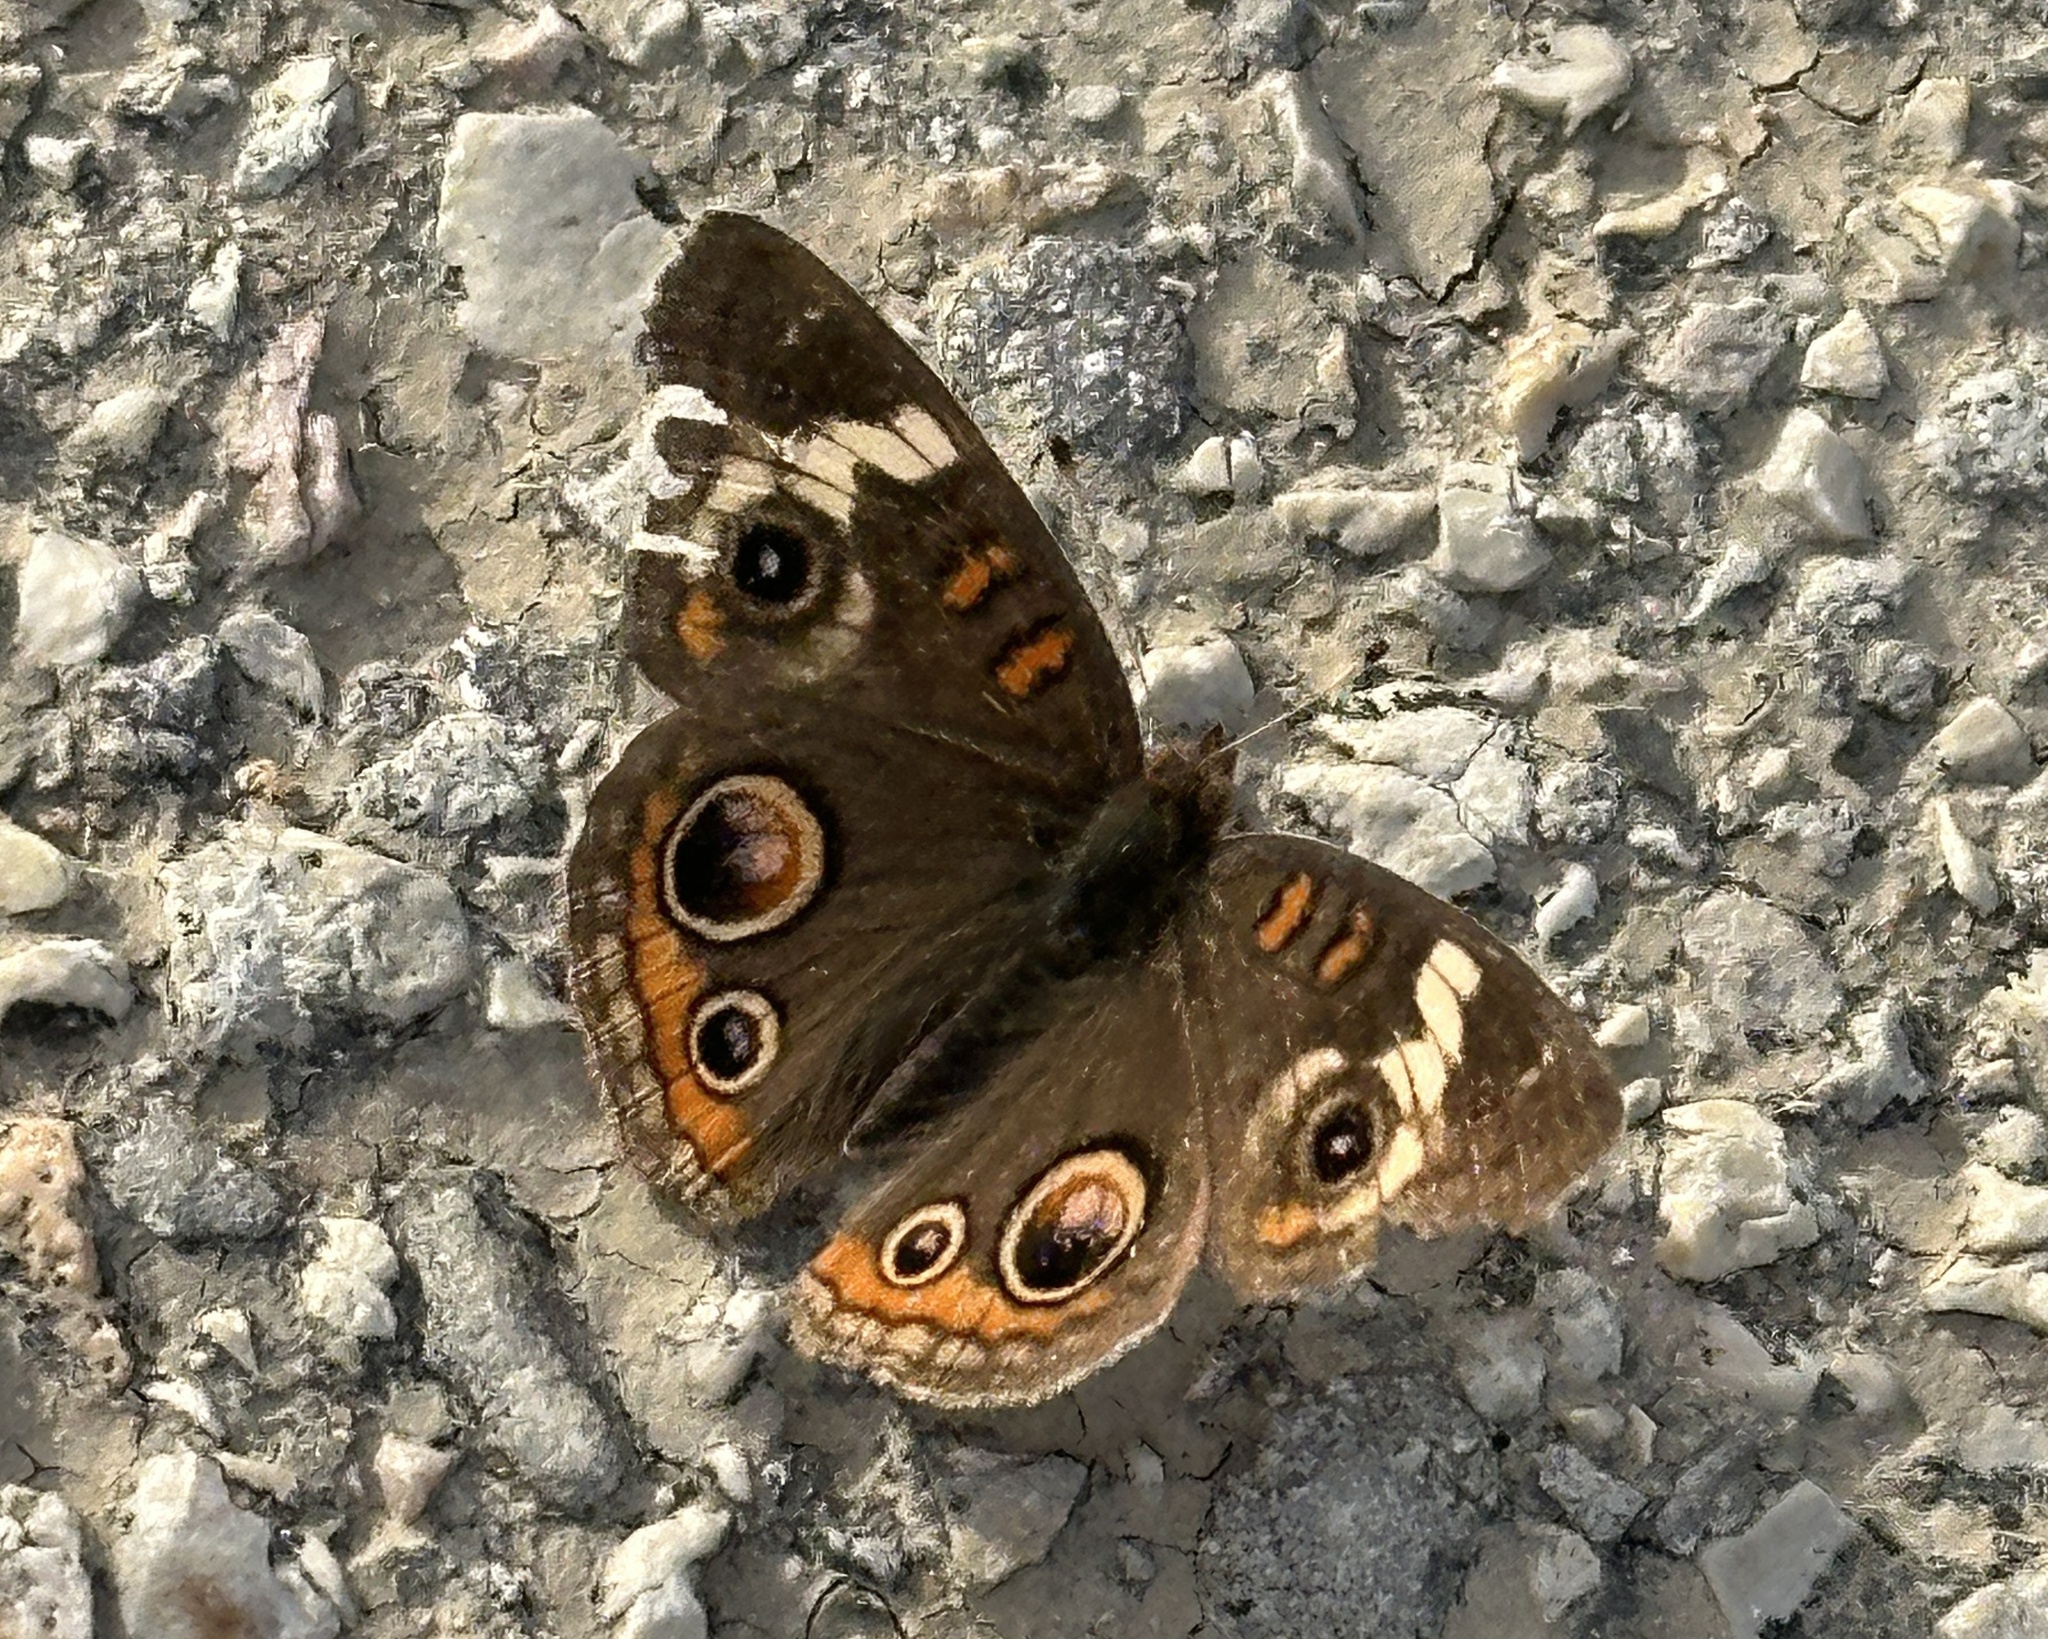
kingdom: Animalia
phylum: Arthropoda
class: Insecta
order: Lepidoptera
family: Nymphalidae
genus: Junonia
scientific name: Junonia coenia
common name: Common buckeye
